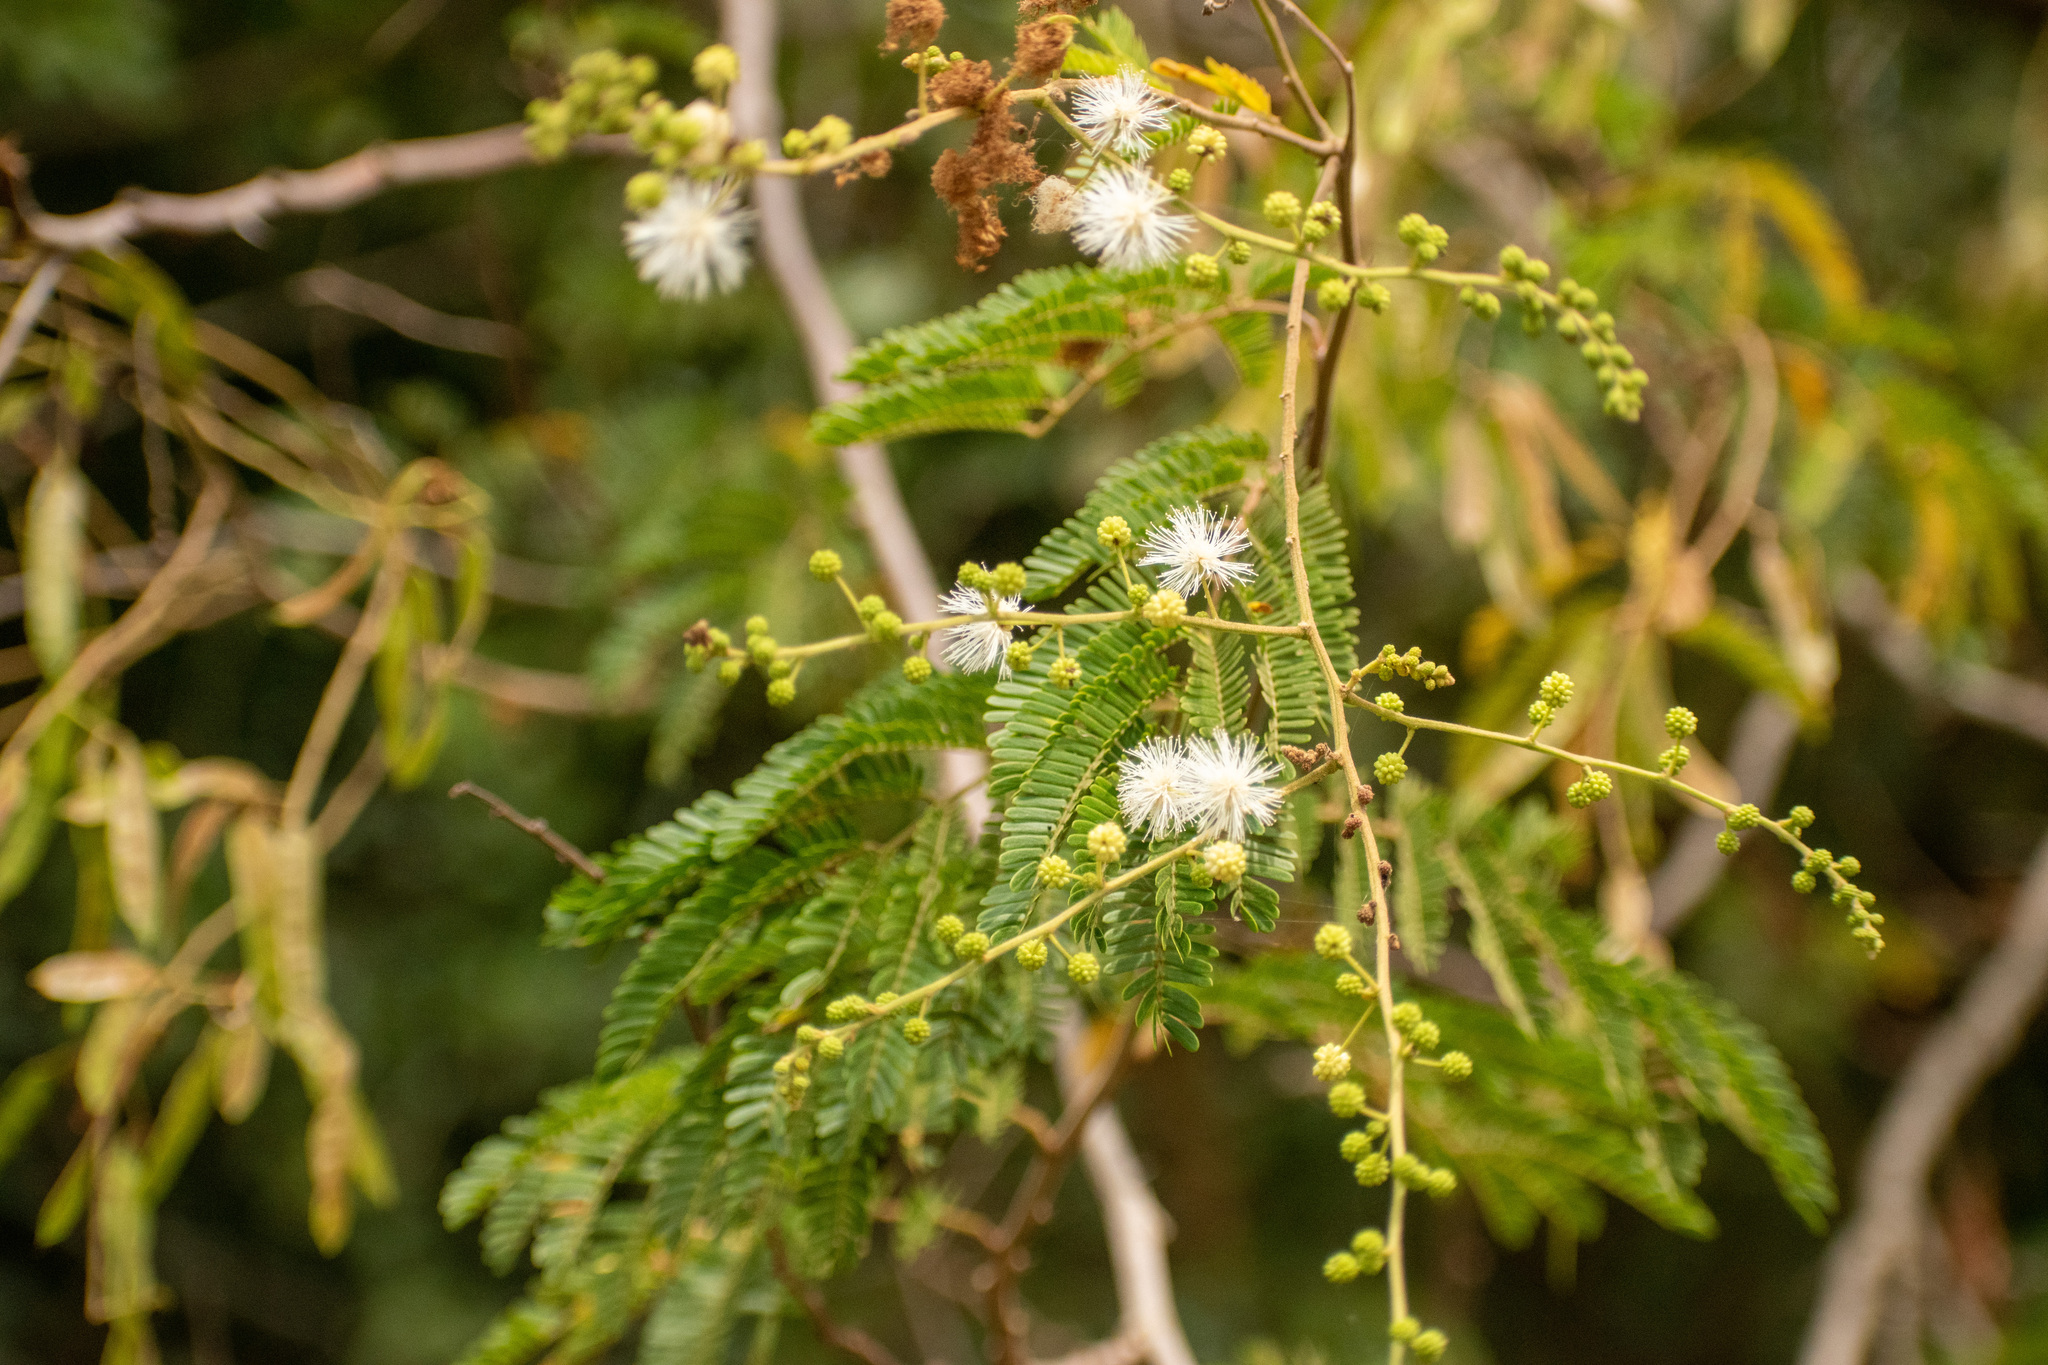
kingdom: Plantae
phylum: Tracheophyta
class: Magnoliopsida
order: Fabales
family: Fabaceae
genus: Mimosa
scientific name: Mimosa bimucronata
